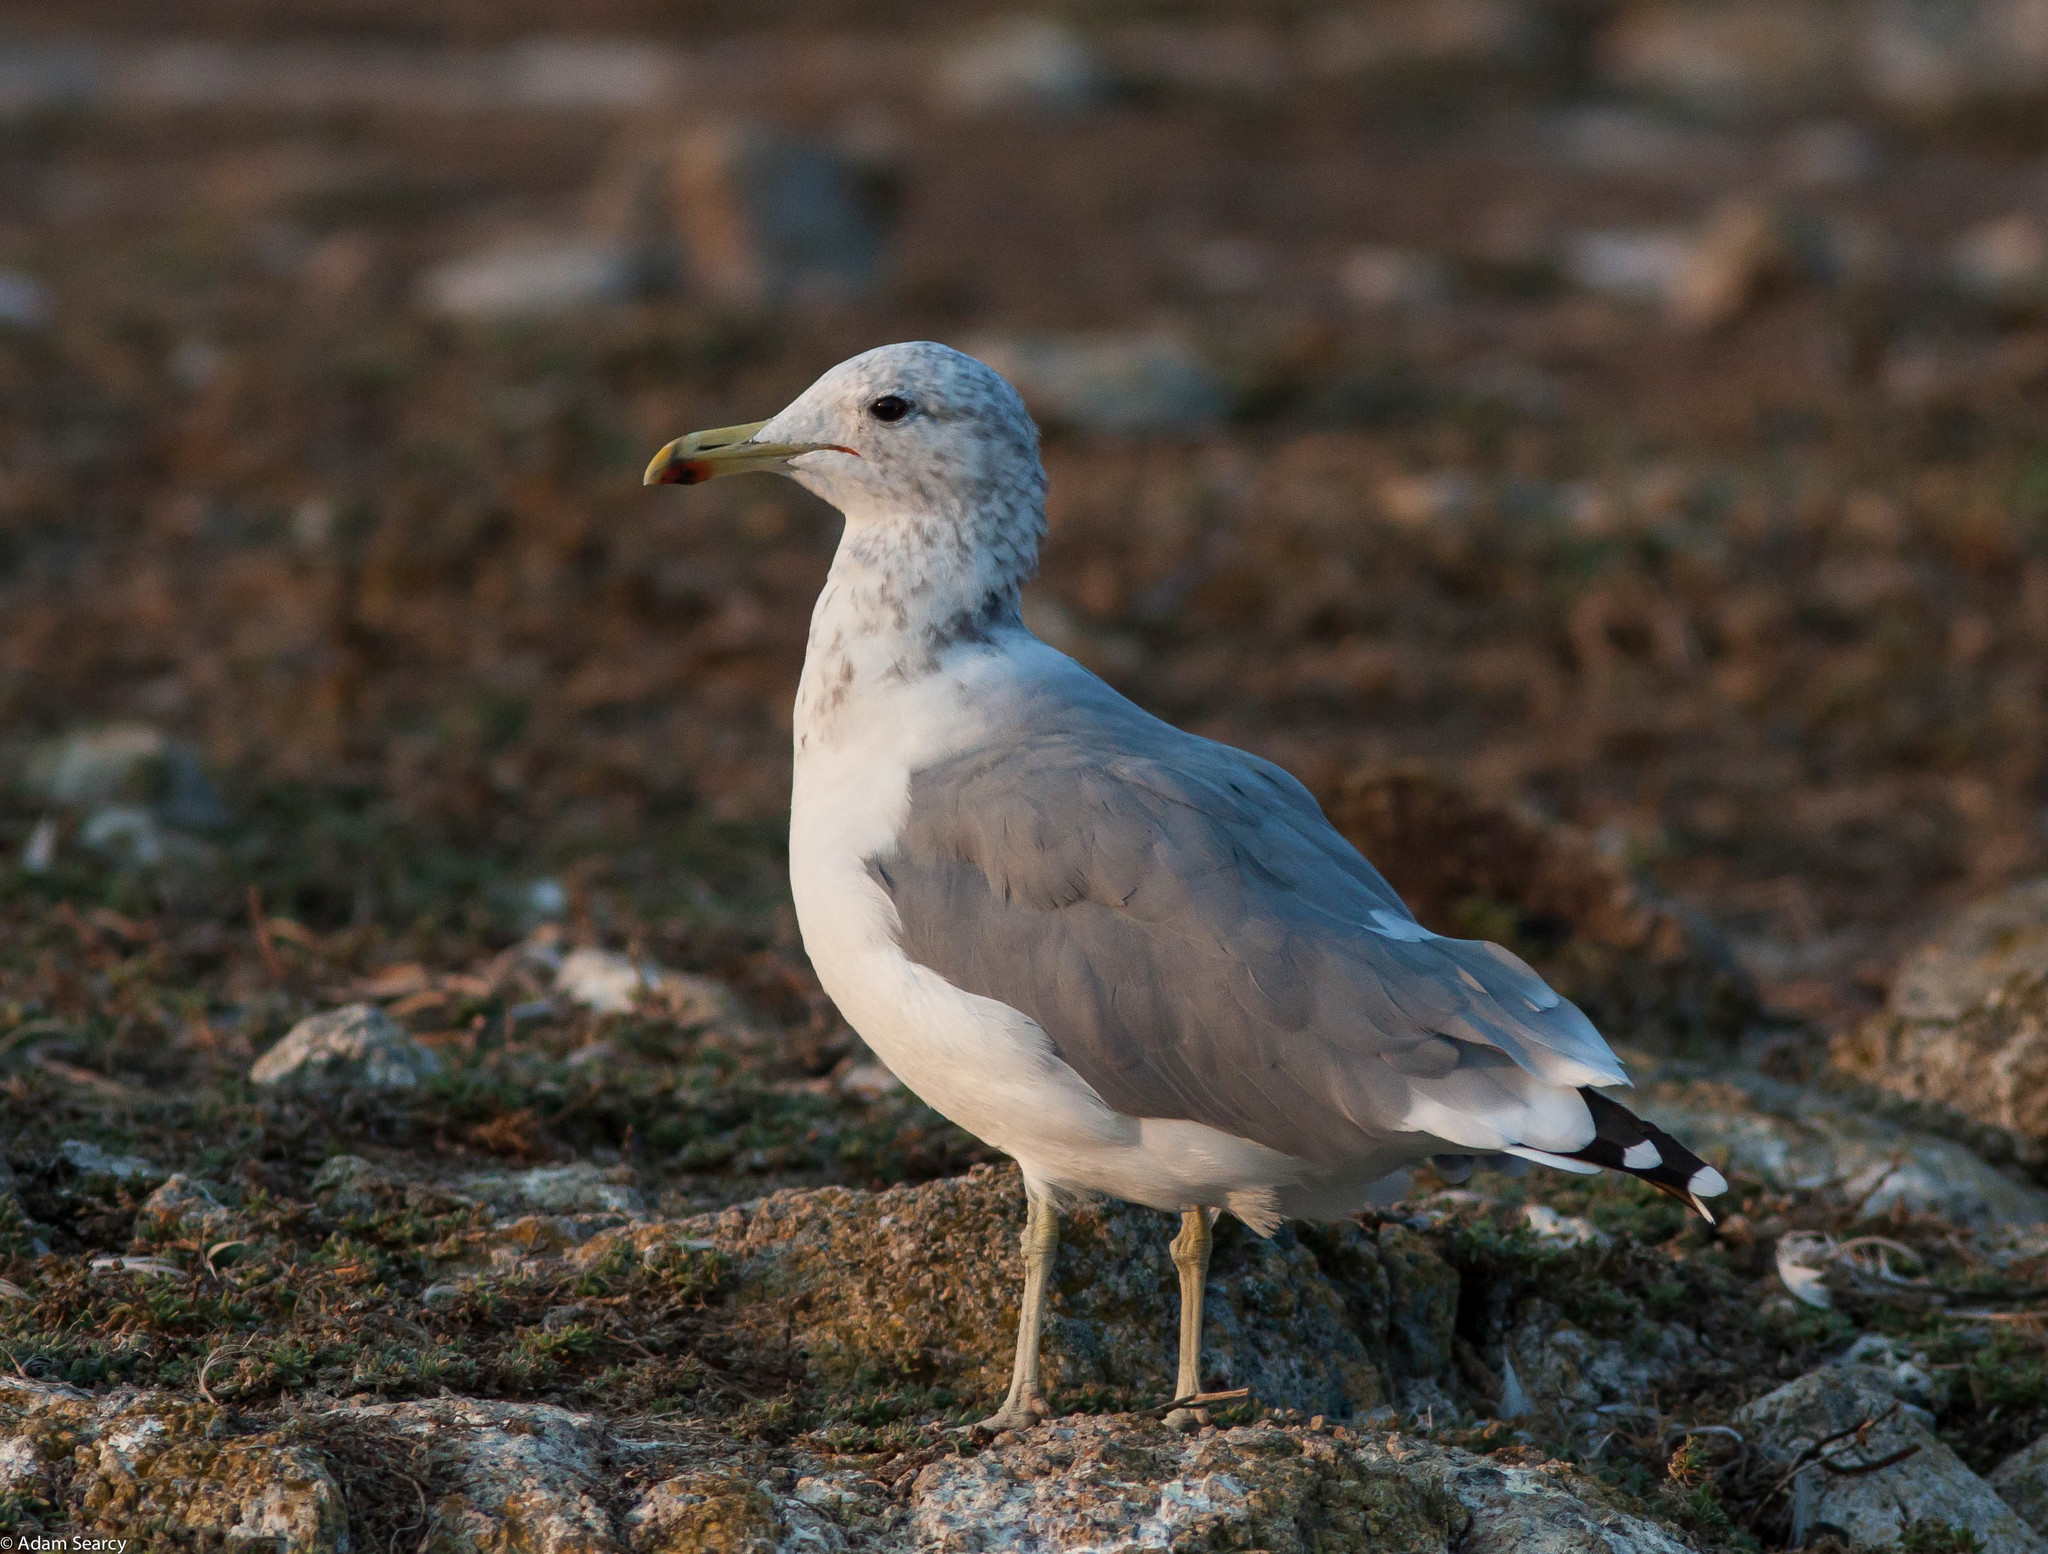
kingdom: Animalia
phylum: Chordata
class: Aves
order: Charadriiformes
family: Laridae
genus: Larus
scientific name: Larus californicus
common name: California gull
